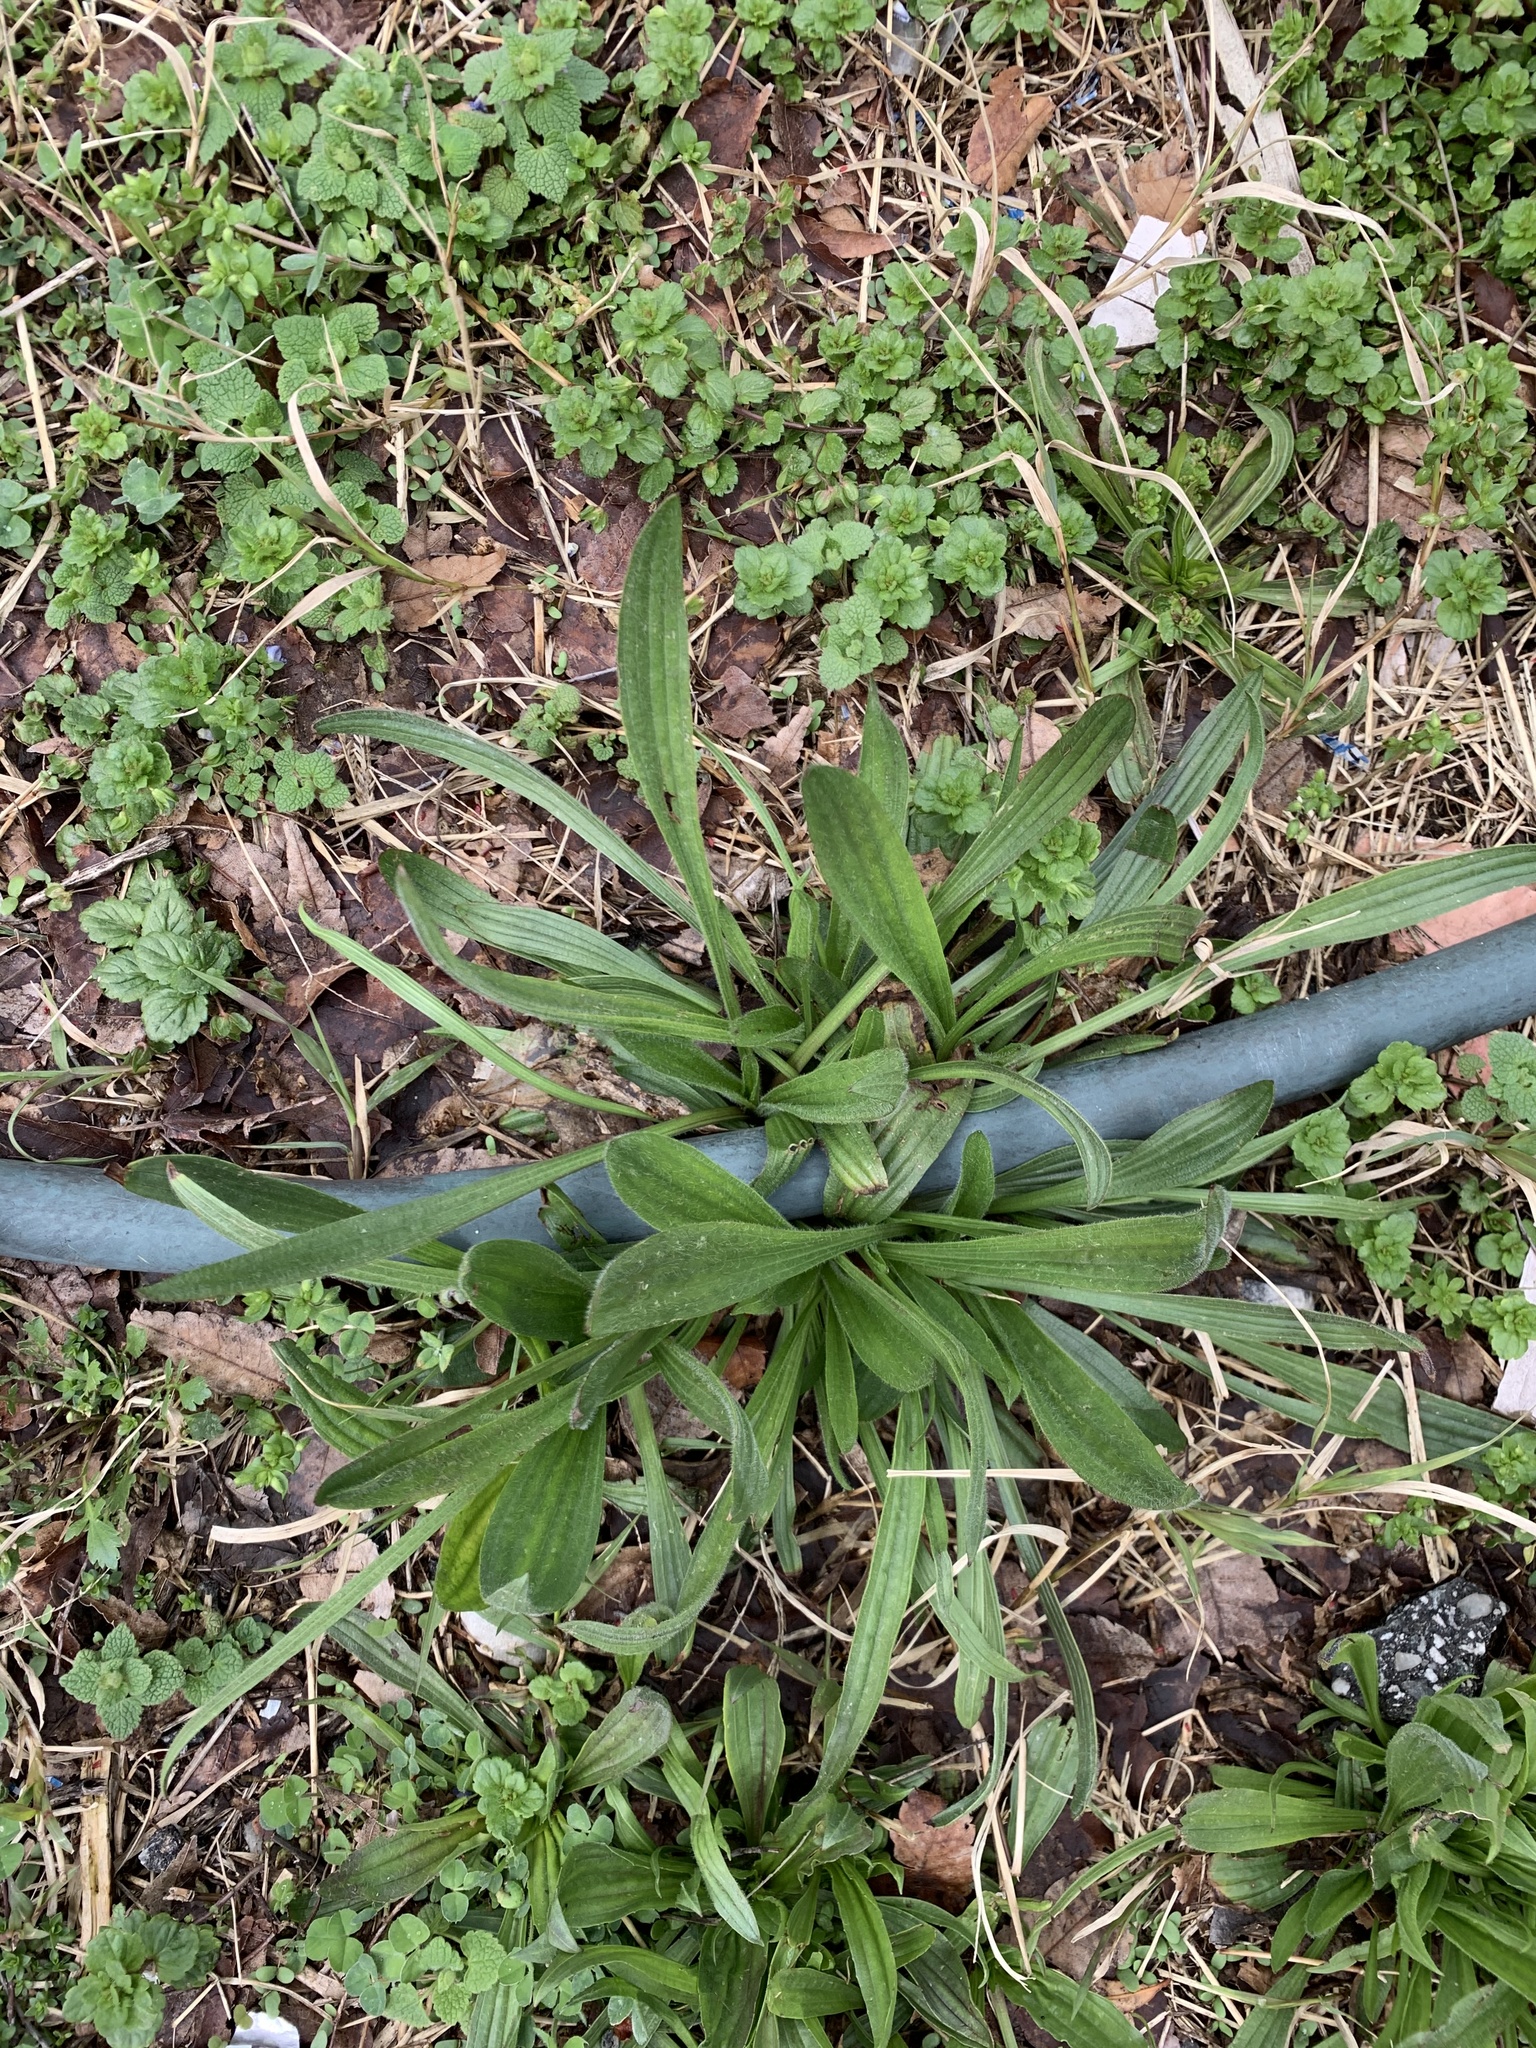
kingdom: Plantae
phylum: Tracheophyta
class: Magnoliopsida
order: Lamiales
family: Plantaginaceae
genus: Plantago
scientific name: Plantago lanceolata
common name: Ribwort plantain
